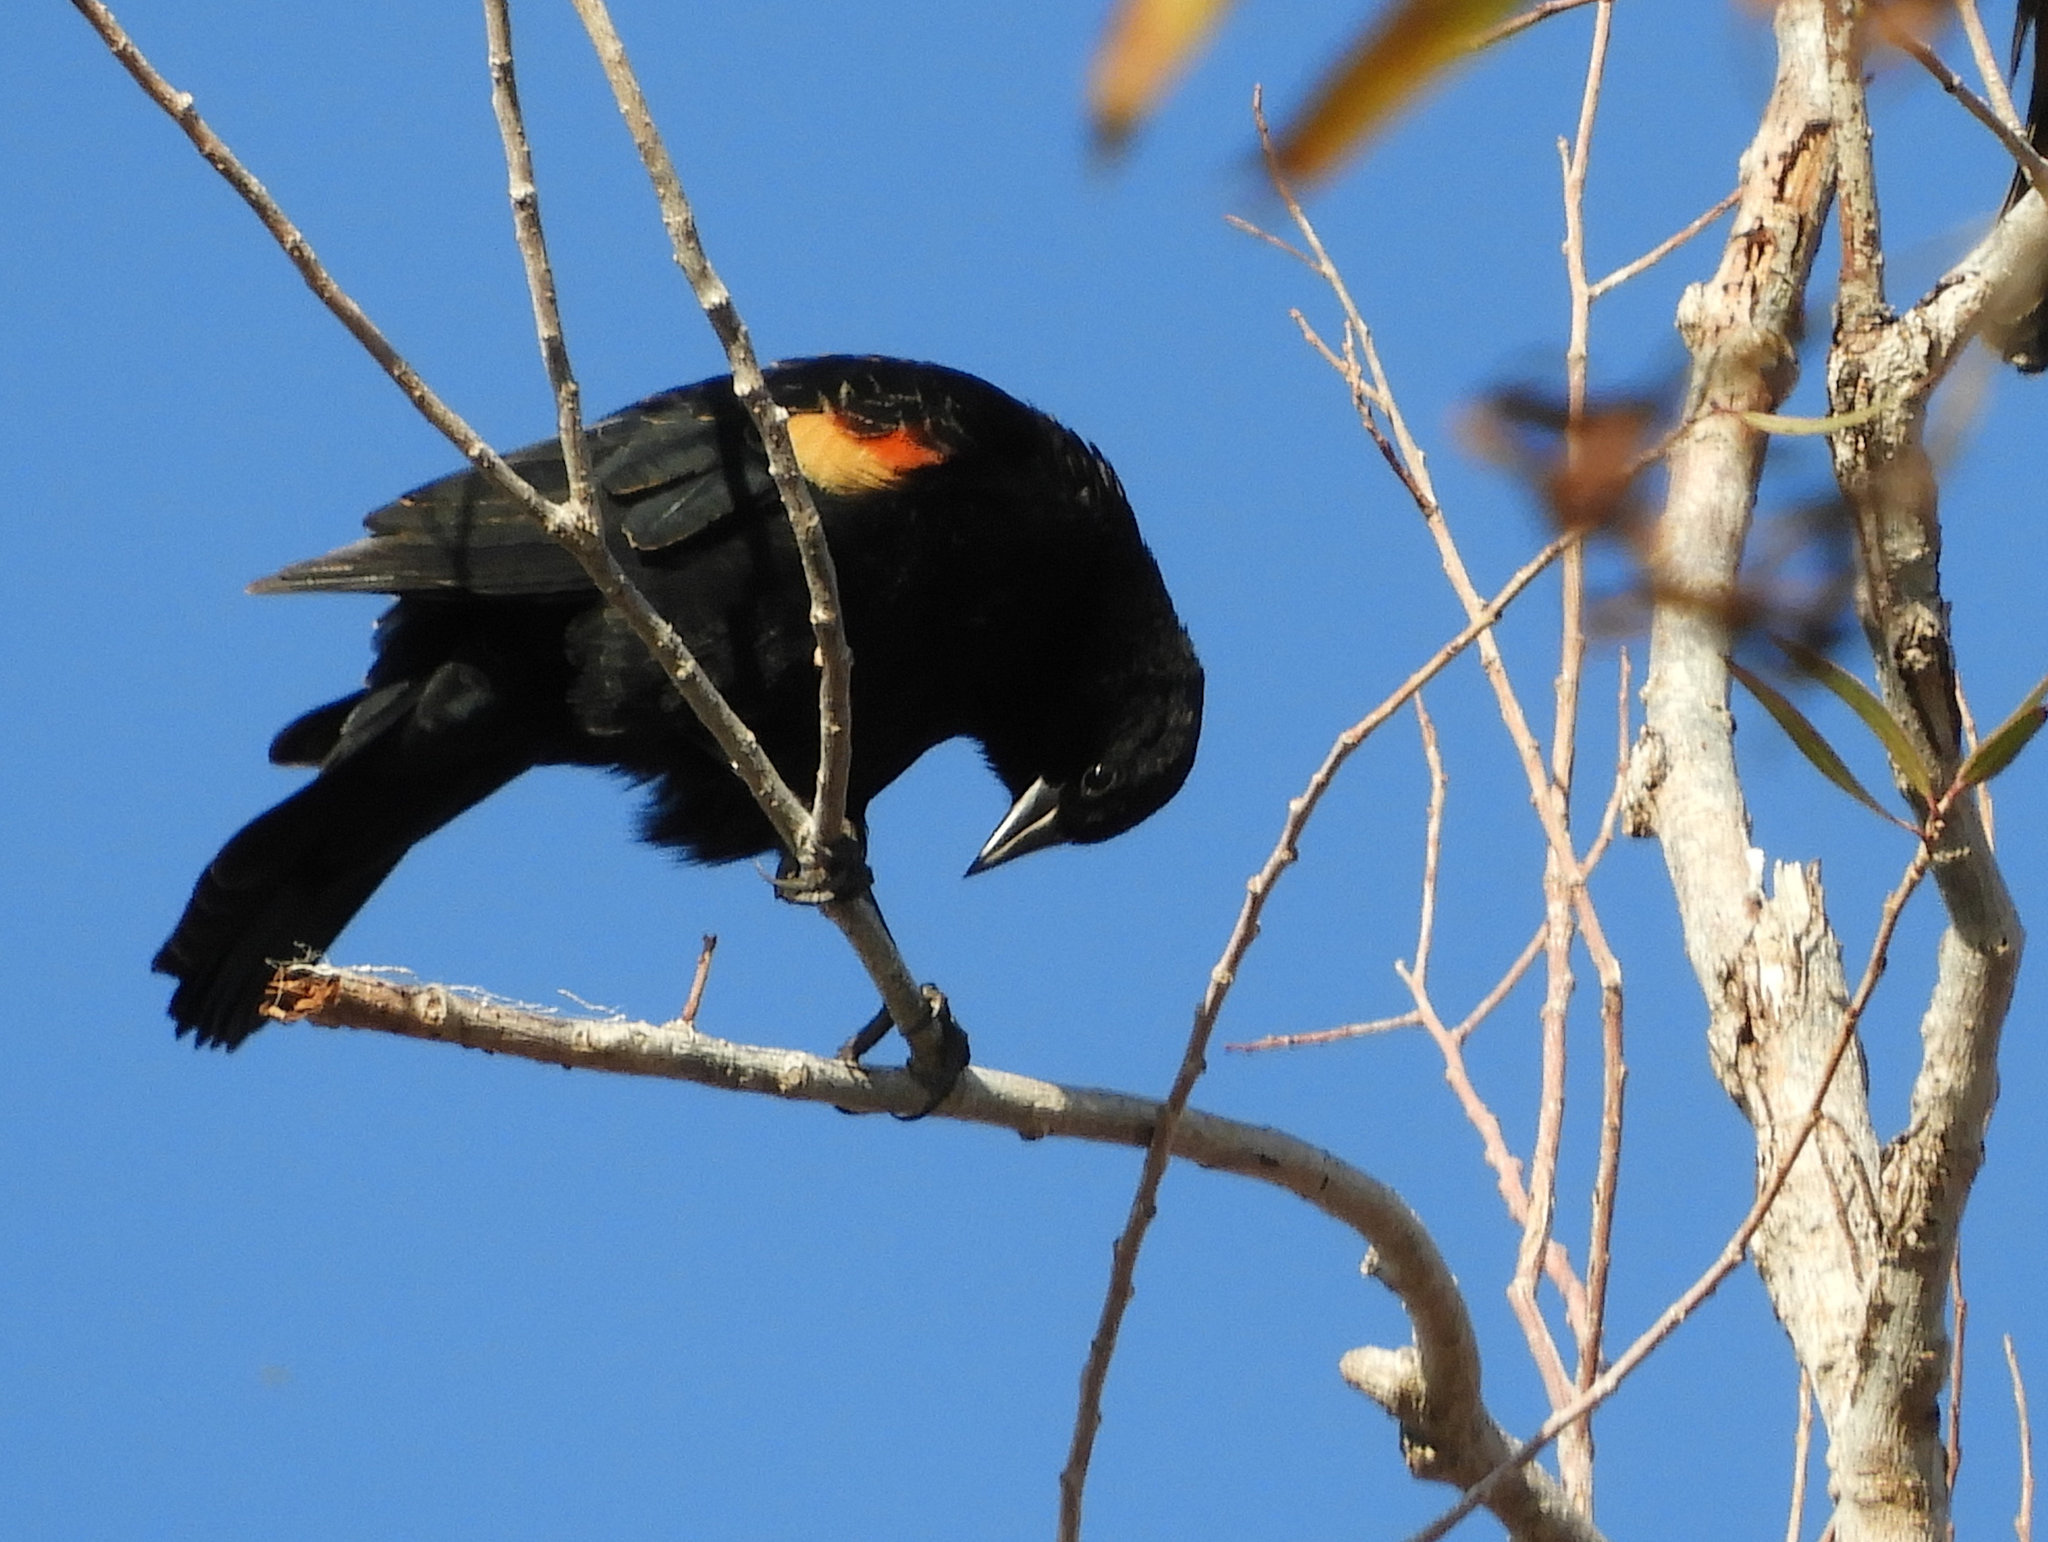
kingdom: Animalia
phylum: Chordata
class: Aves
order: Passeriformes
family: Icteridae
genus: Agelaius
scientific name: Agelaius phoeniceus
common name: Red-winged blackbird
